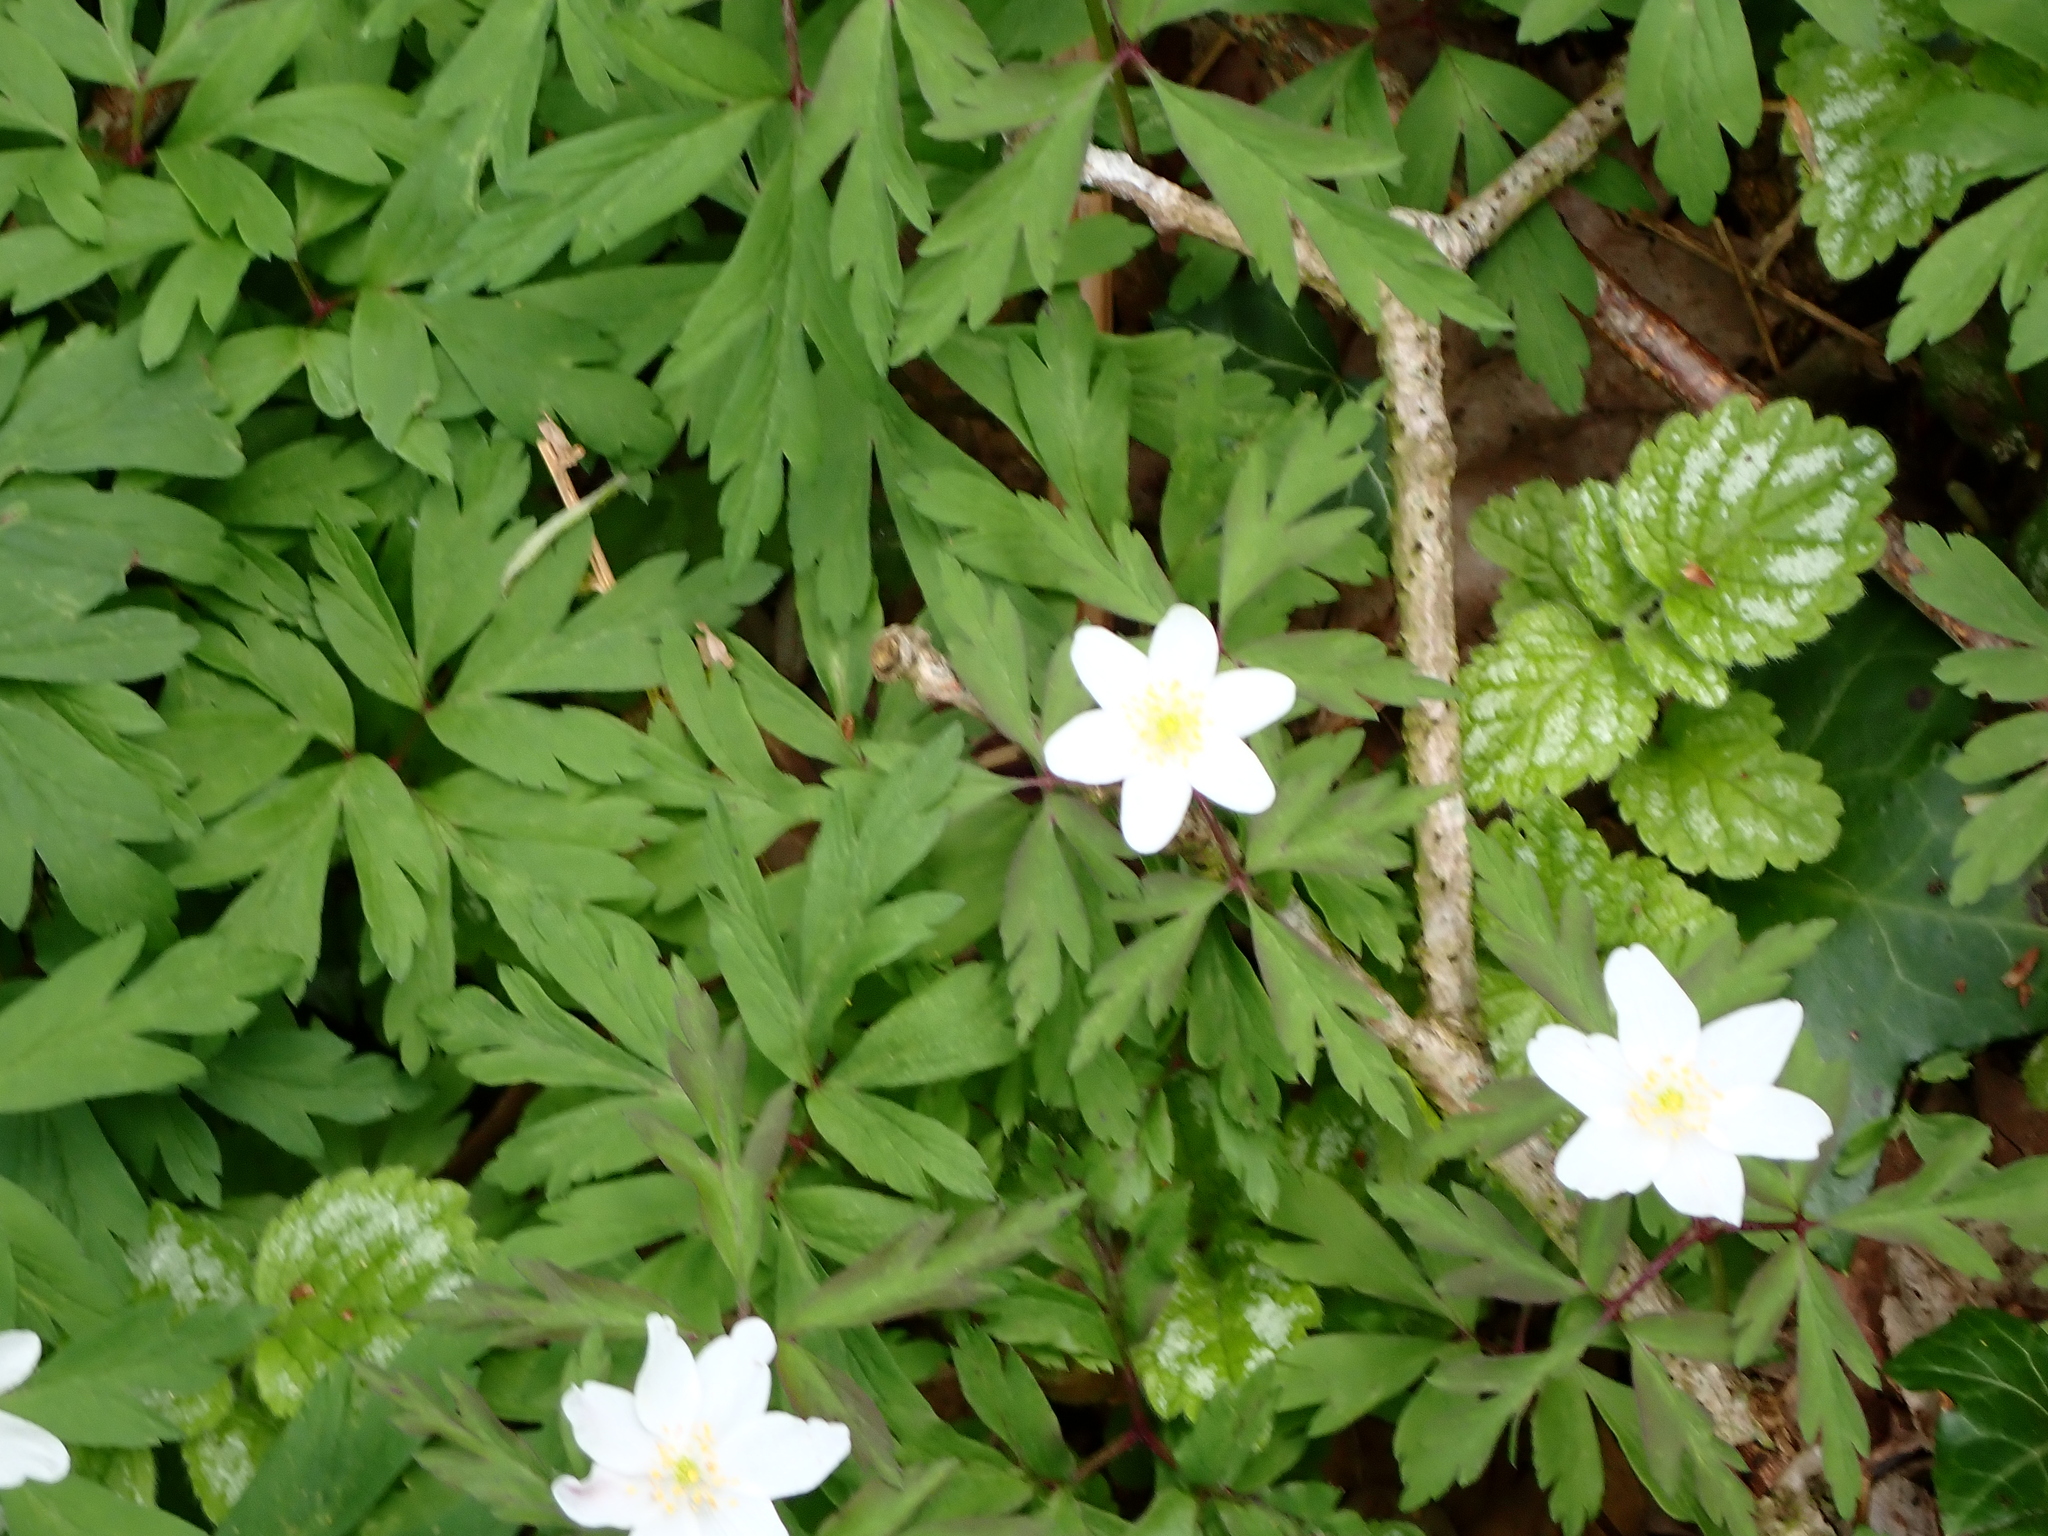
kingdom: Plantae
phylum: Tracheophyta
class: Magnoliopsida
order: Ranunculales
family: Ranunculaceae
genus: Anemone
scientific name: Anemone nemorosa
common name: Wood anemone
